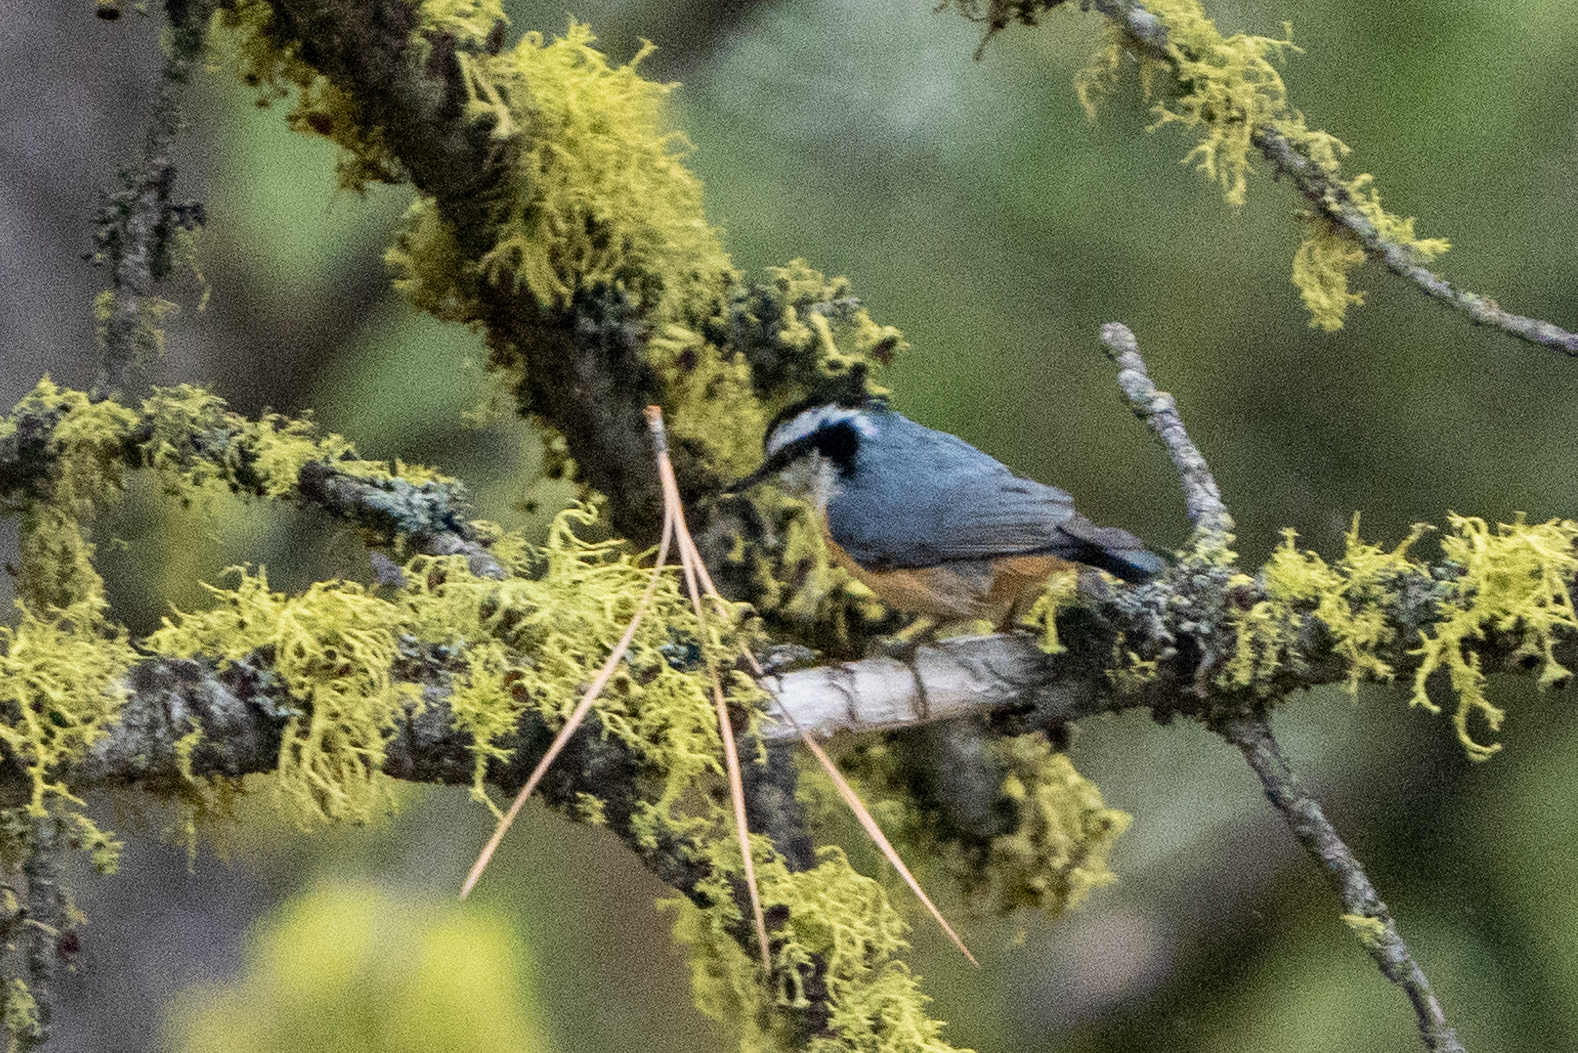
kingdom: Animalia
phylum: Chordata
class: Aves
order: Passeriformes
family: Sittidae
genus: Sitta
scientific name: Sitta canadensis
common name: Red-breasted nuthatch
